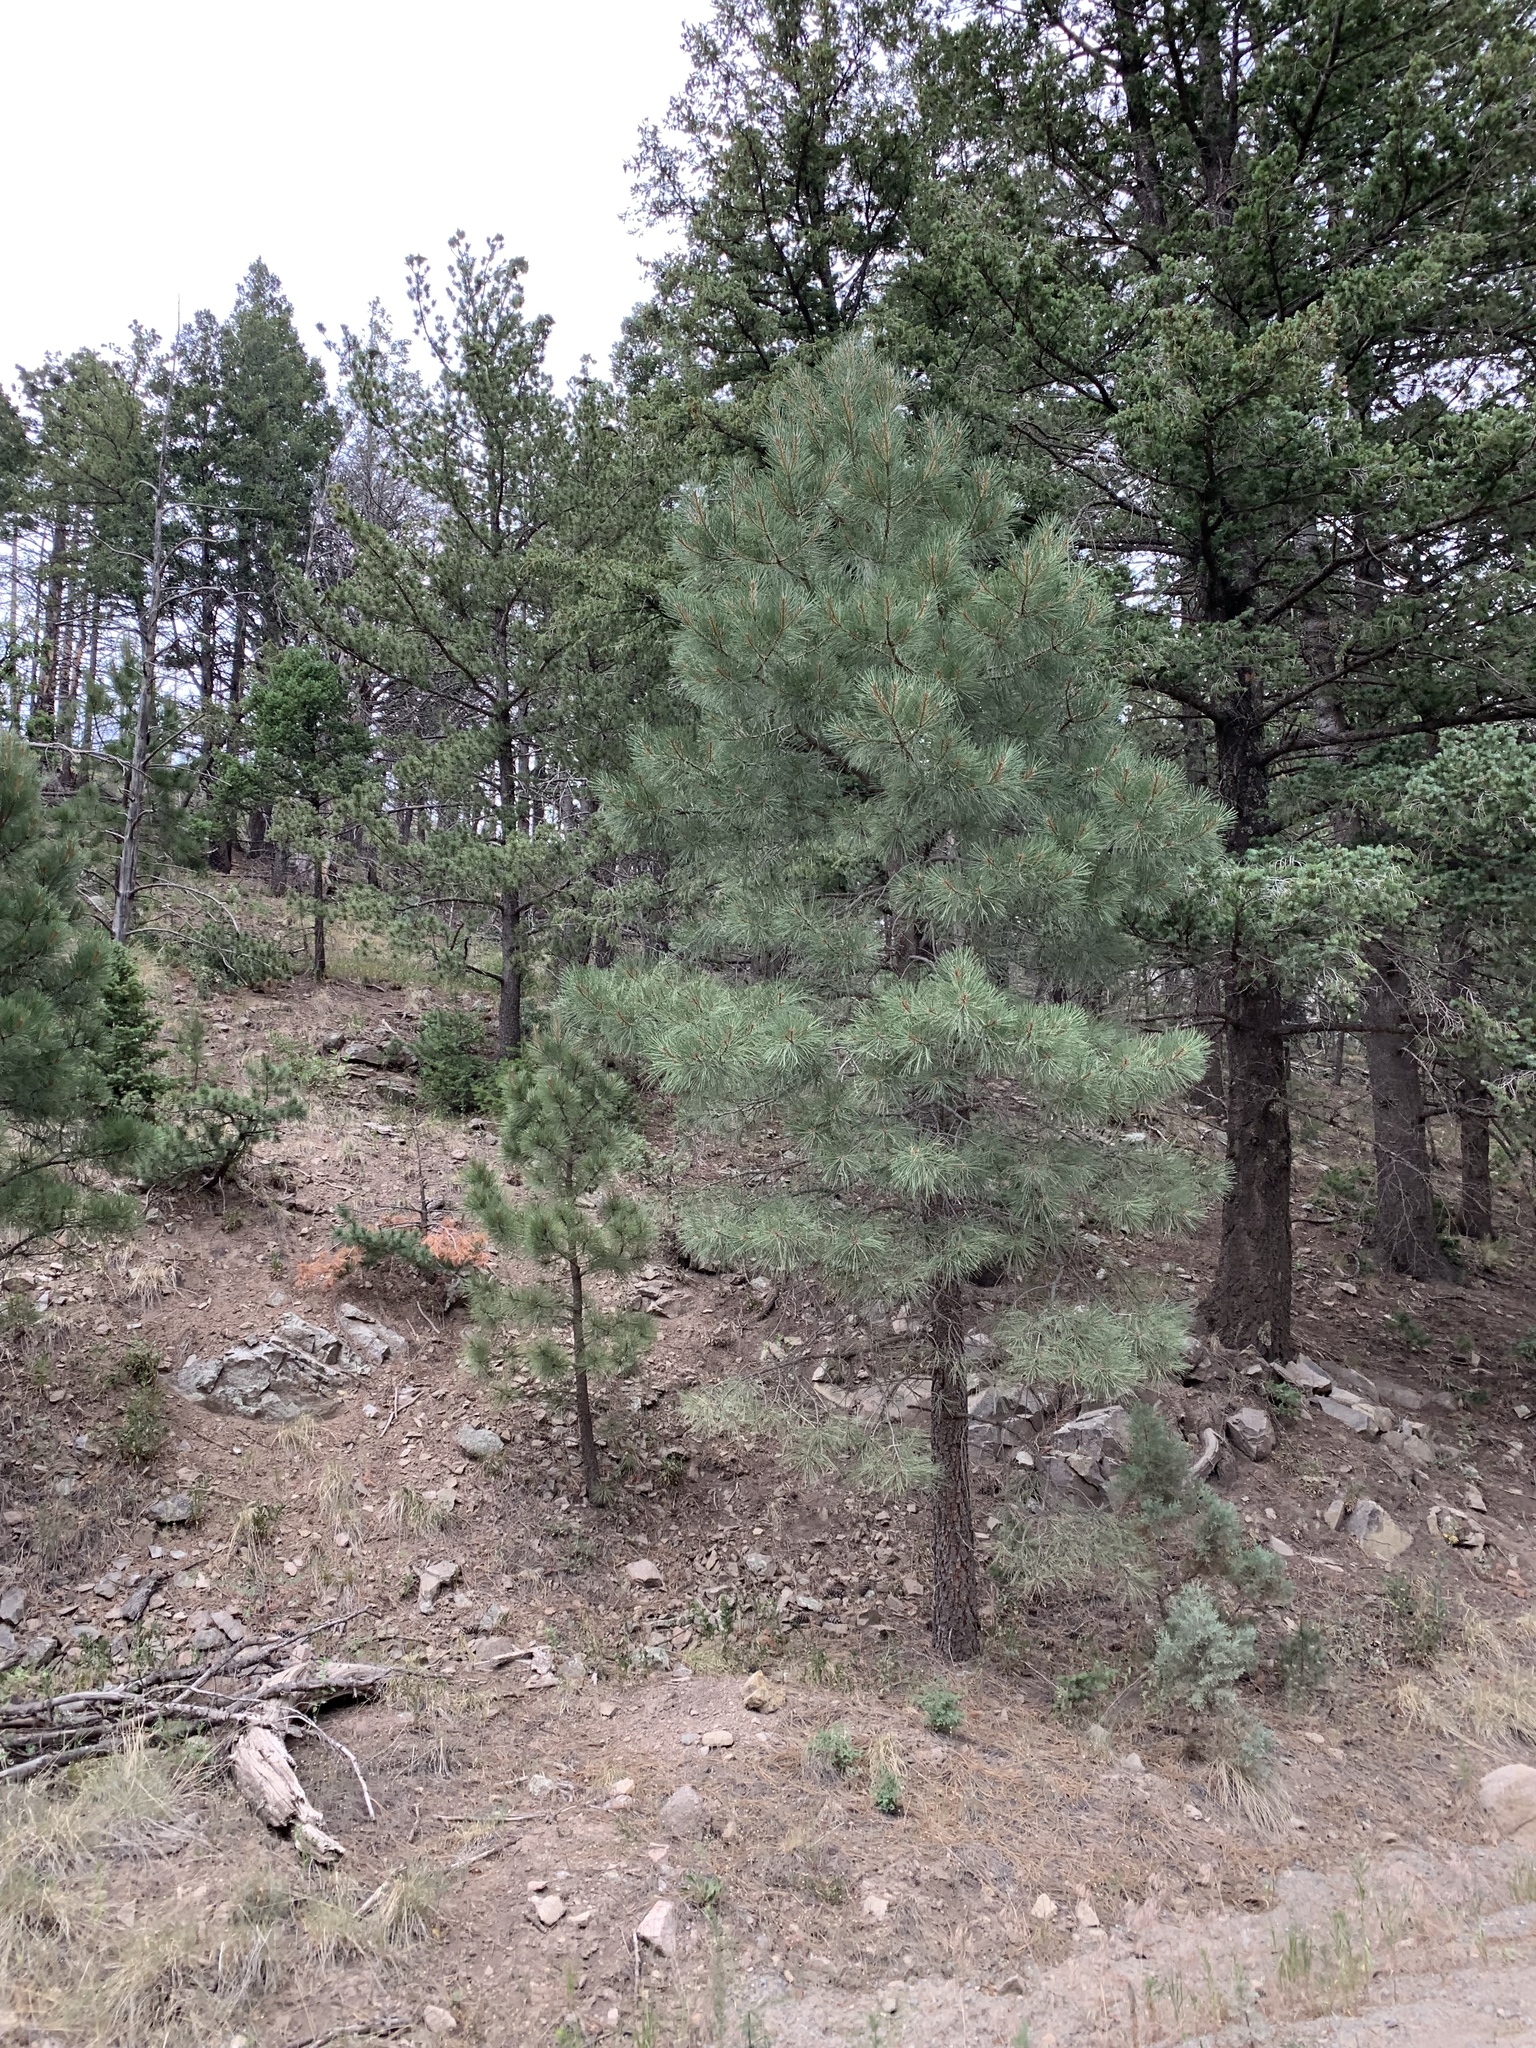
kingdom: Plantae
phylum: Tracheophyta
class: Pinopsida
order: Pinales
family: Pinaceae
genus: Pinus
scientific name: Pinus ponderosa
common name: Western yellow-pine
